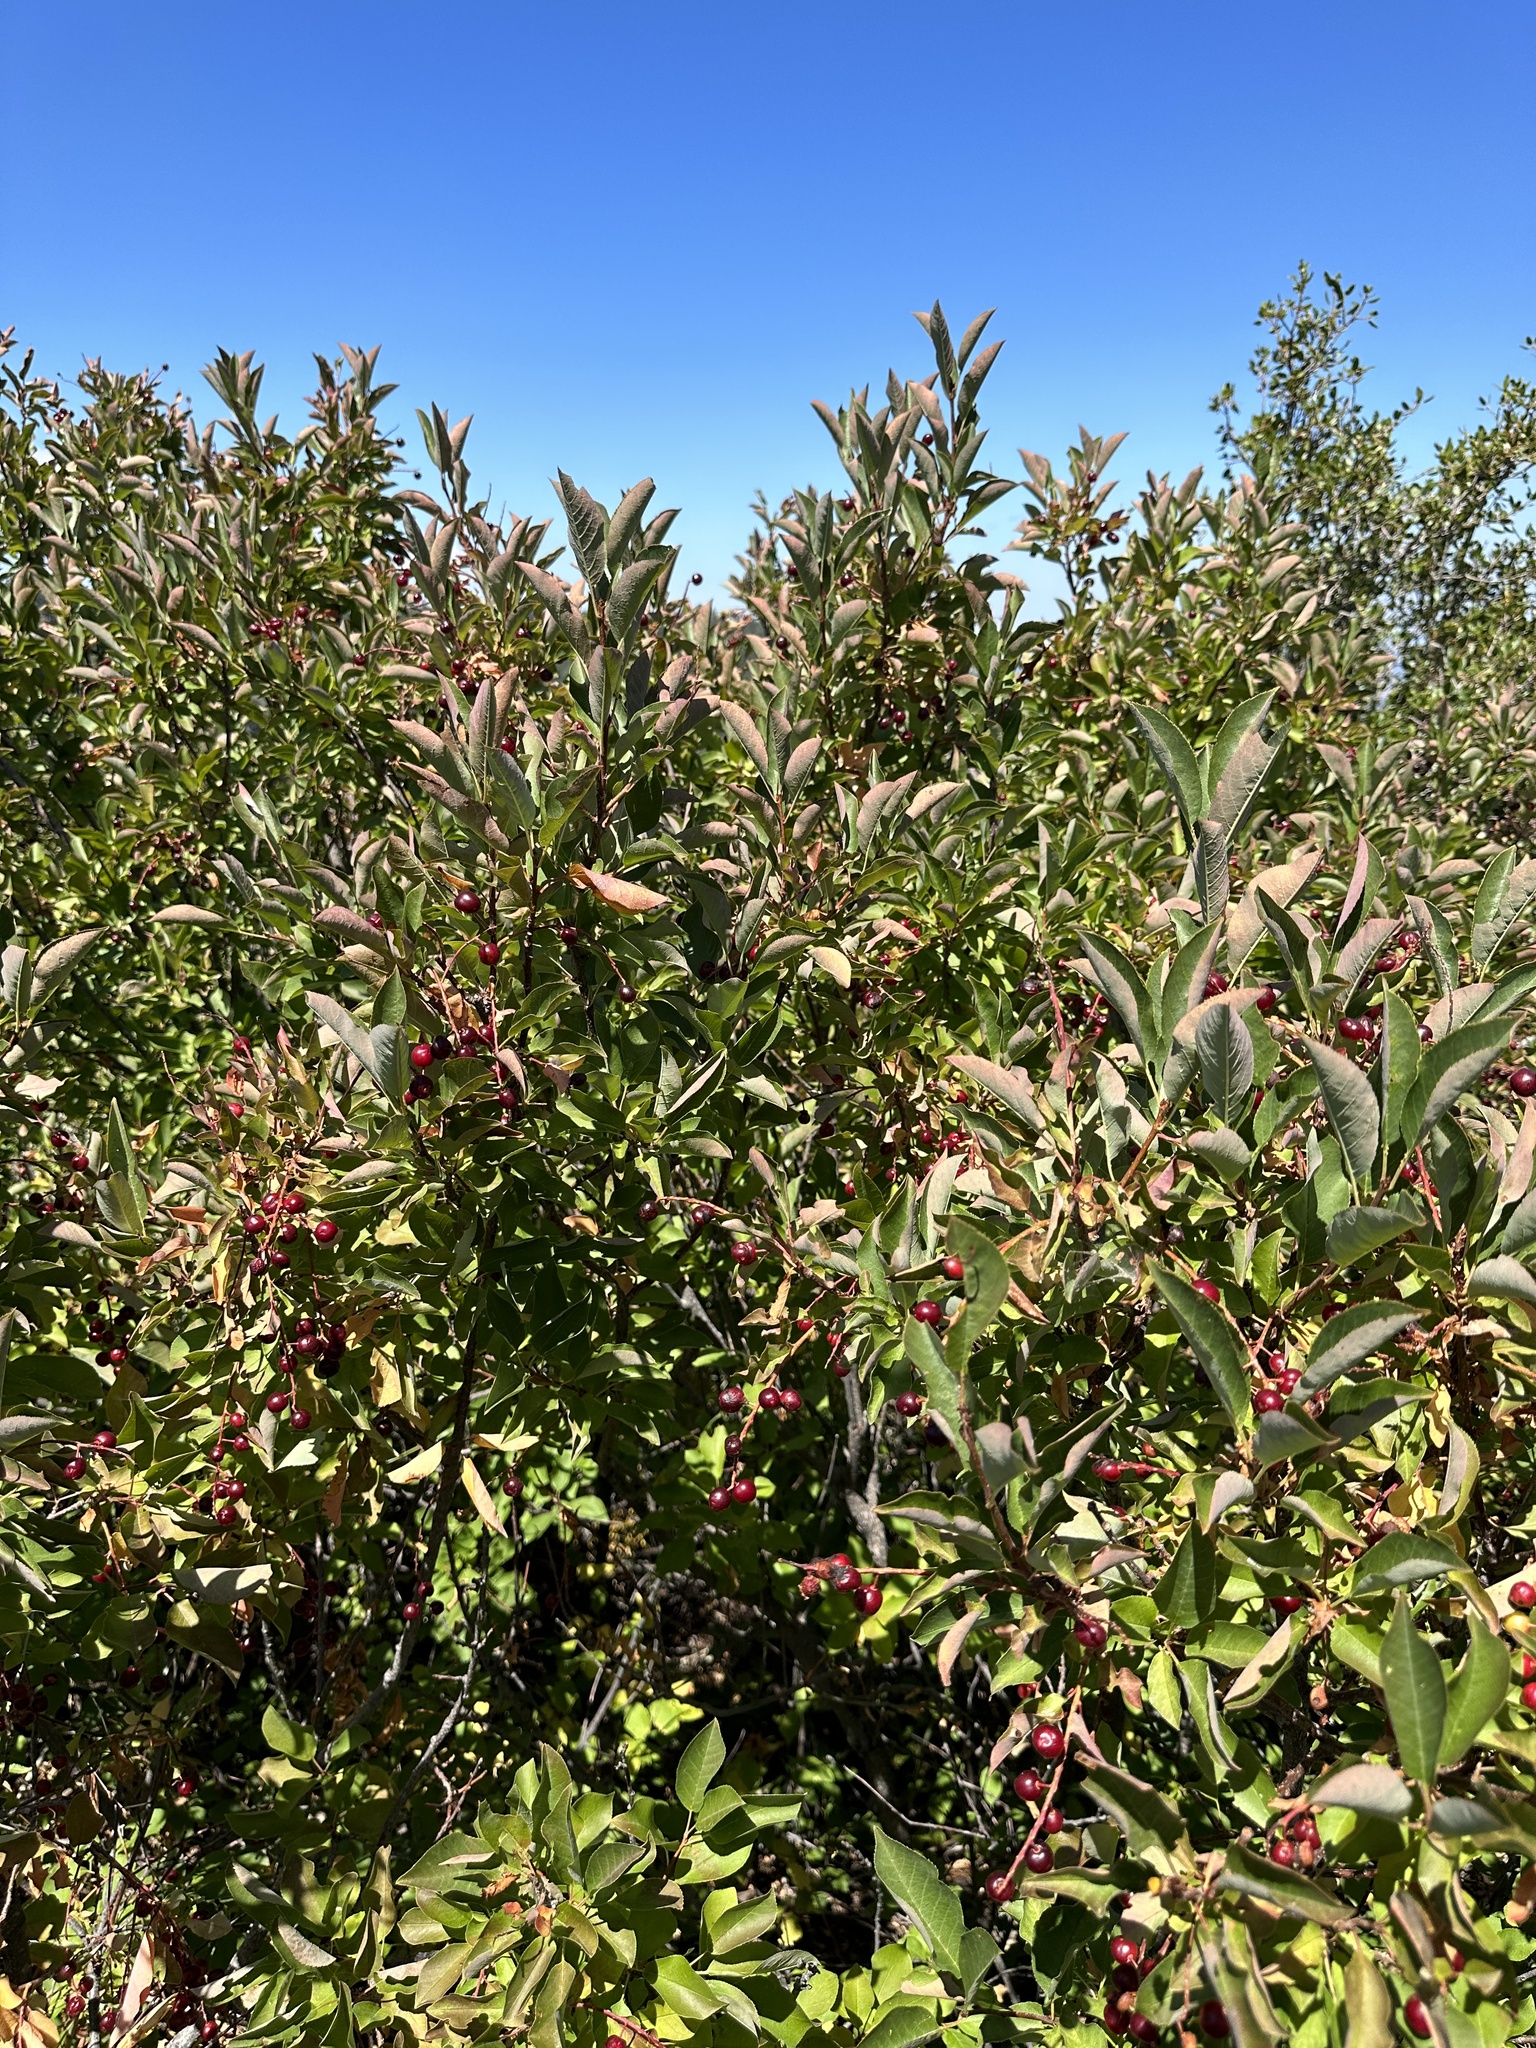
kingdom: Plantae
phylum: Tracheophyta
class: Magnoliopsida
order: Rosales
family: Rosaceae
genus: Prunus
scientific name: Prunus virginiana
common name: Chokecherry
